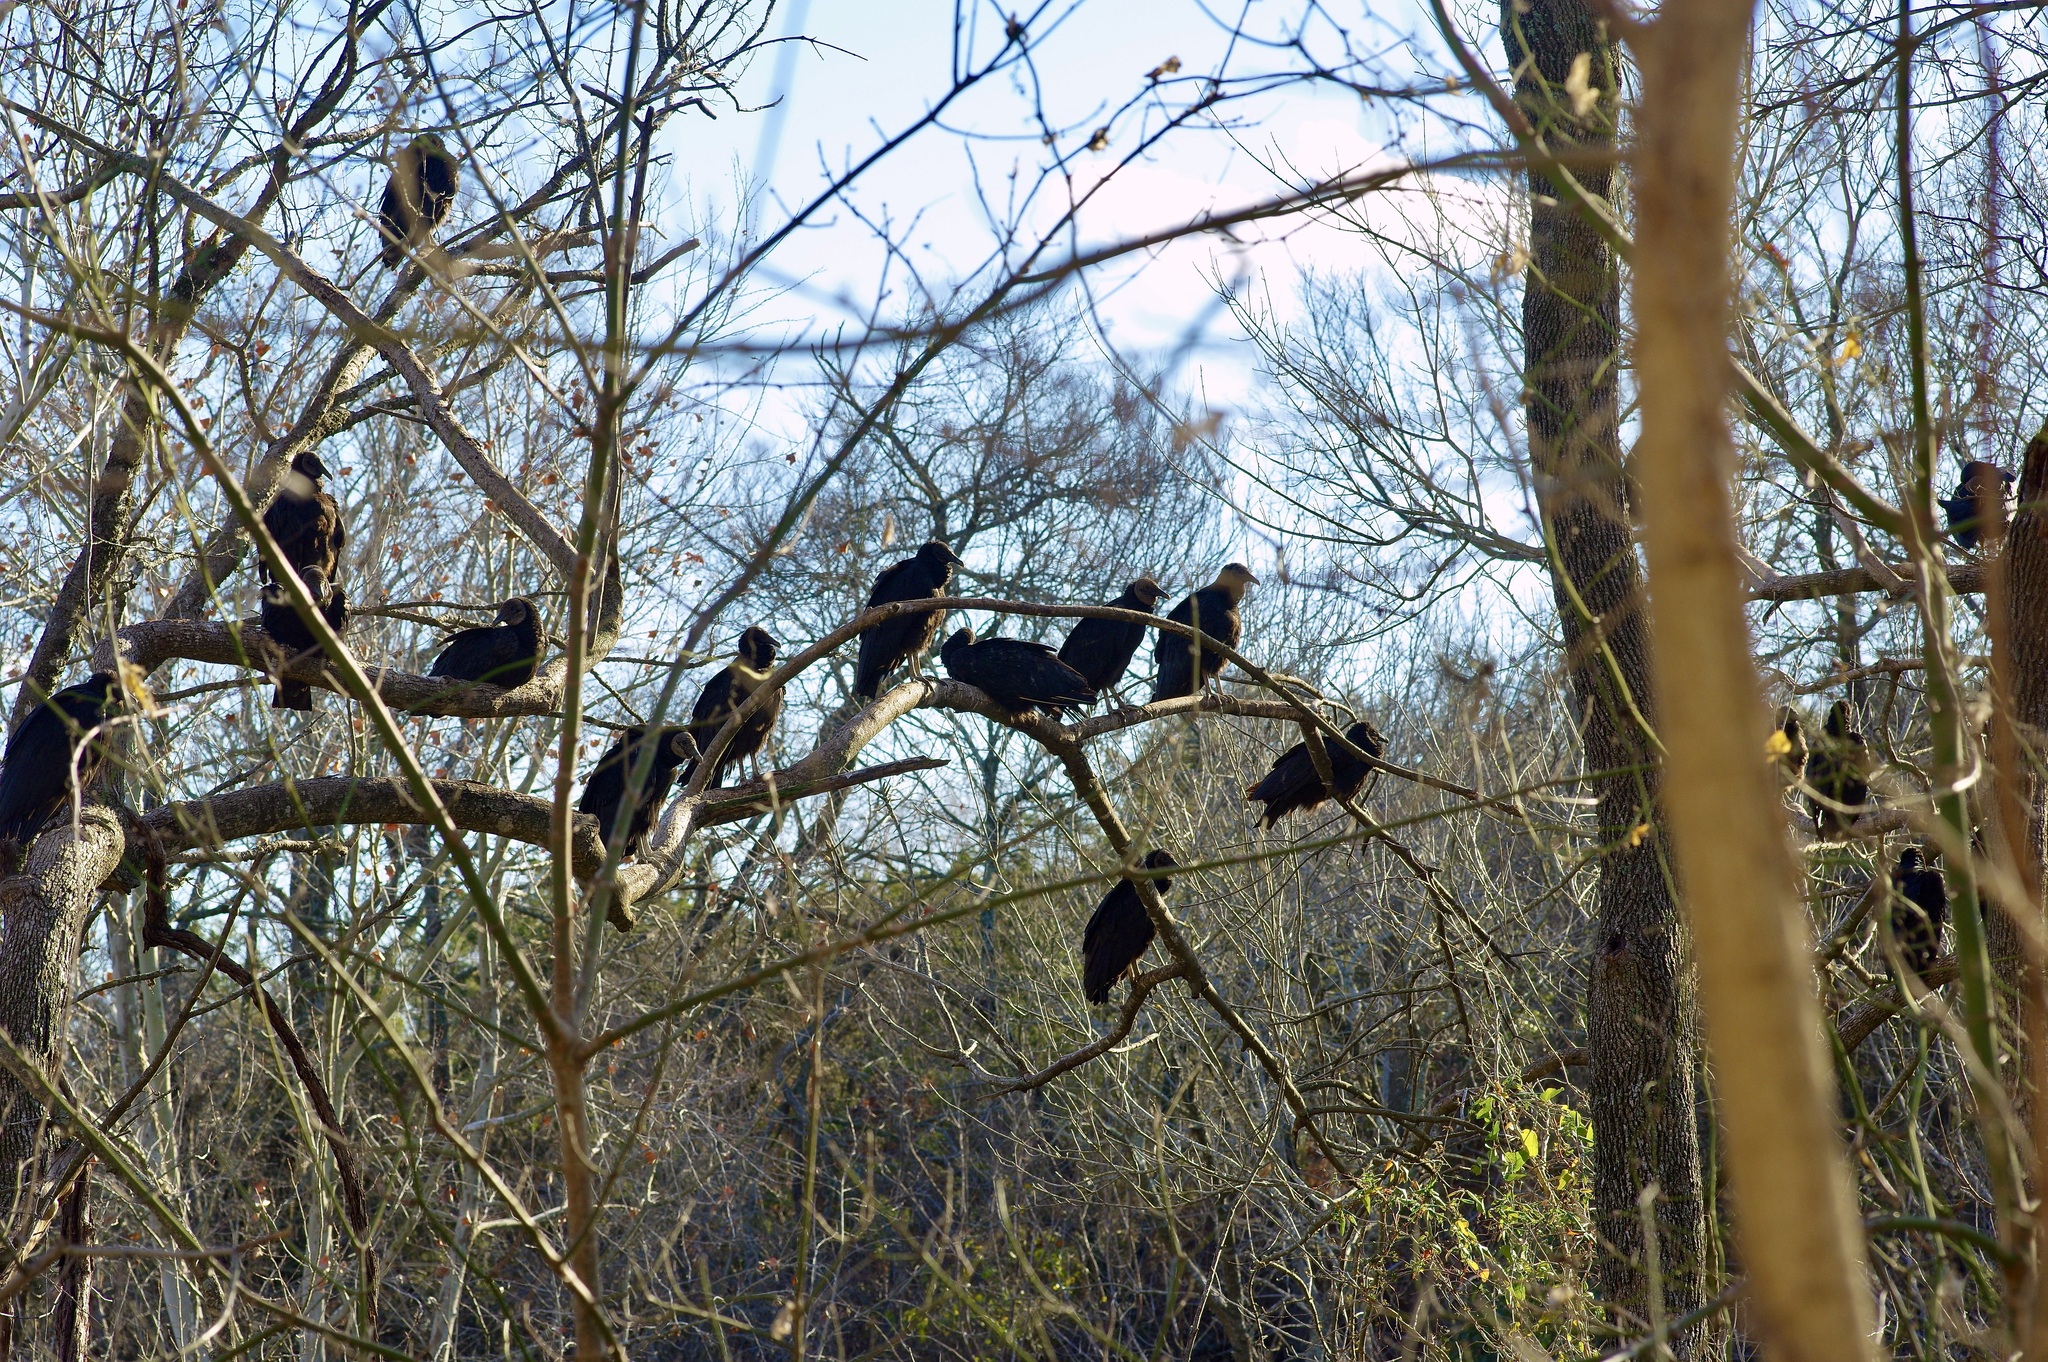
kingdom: Animalia
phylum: Chordata
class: Aves
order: Accipitriformes
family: Cathartidae
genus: Coragyps
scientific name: Coragyps atratus
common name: Black vulture
